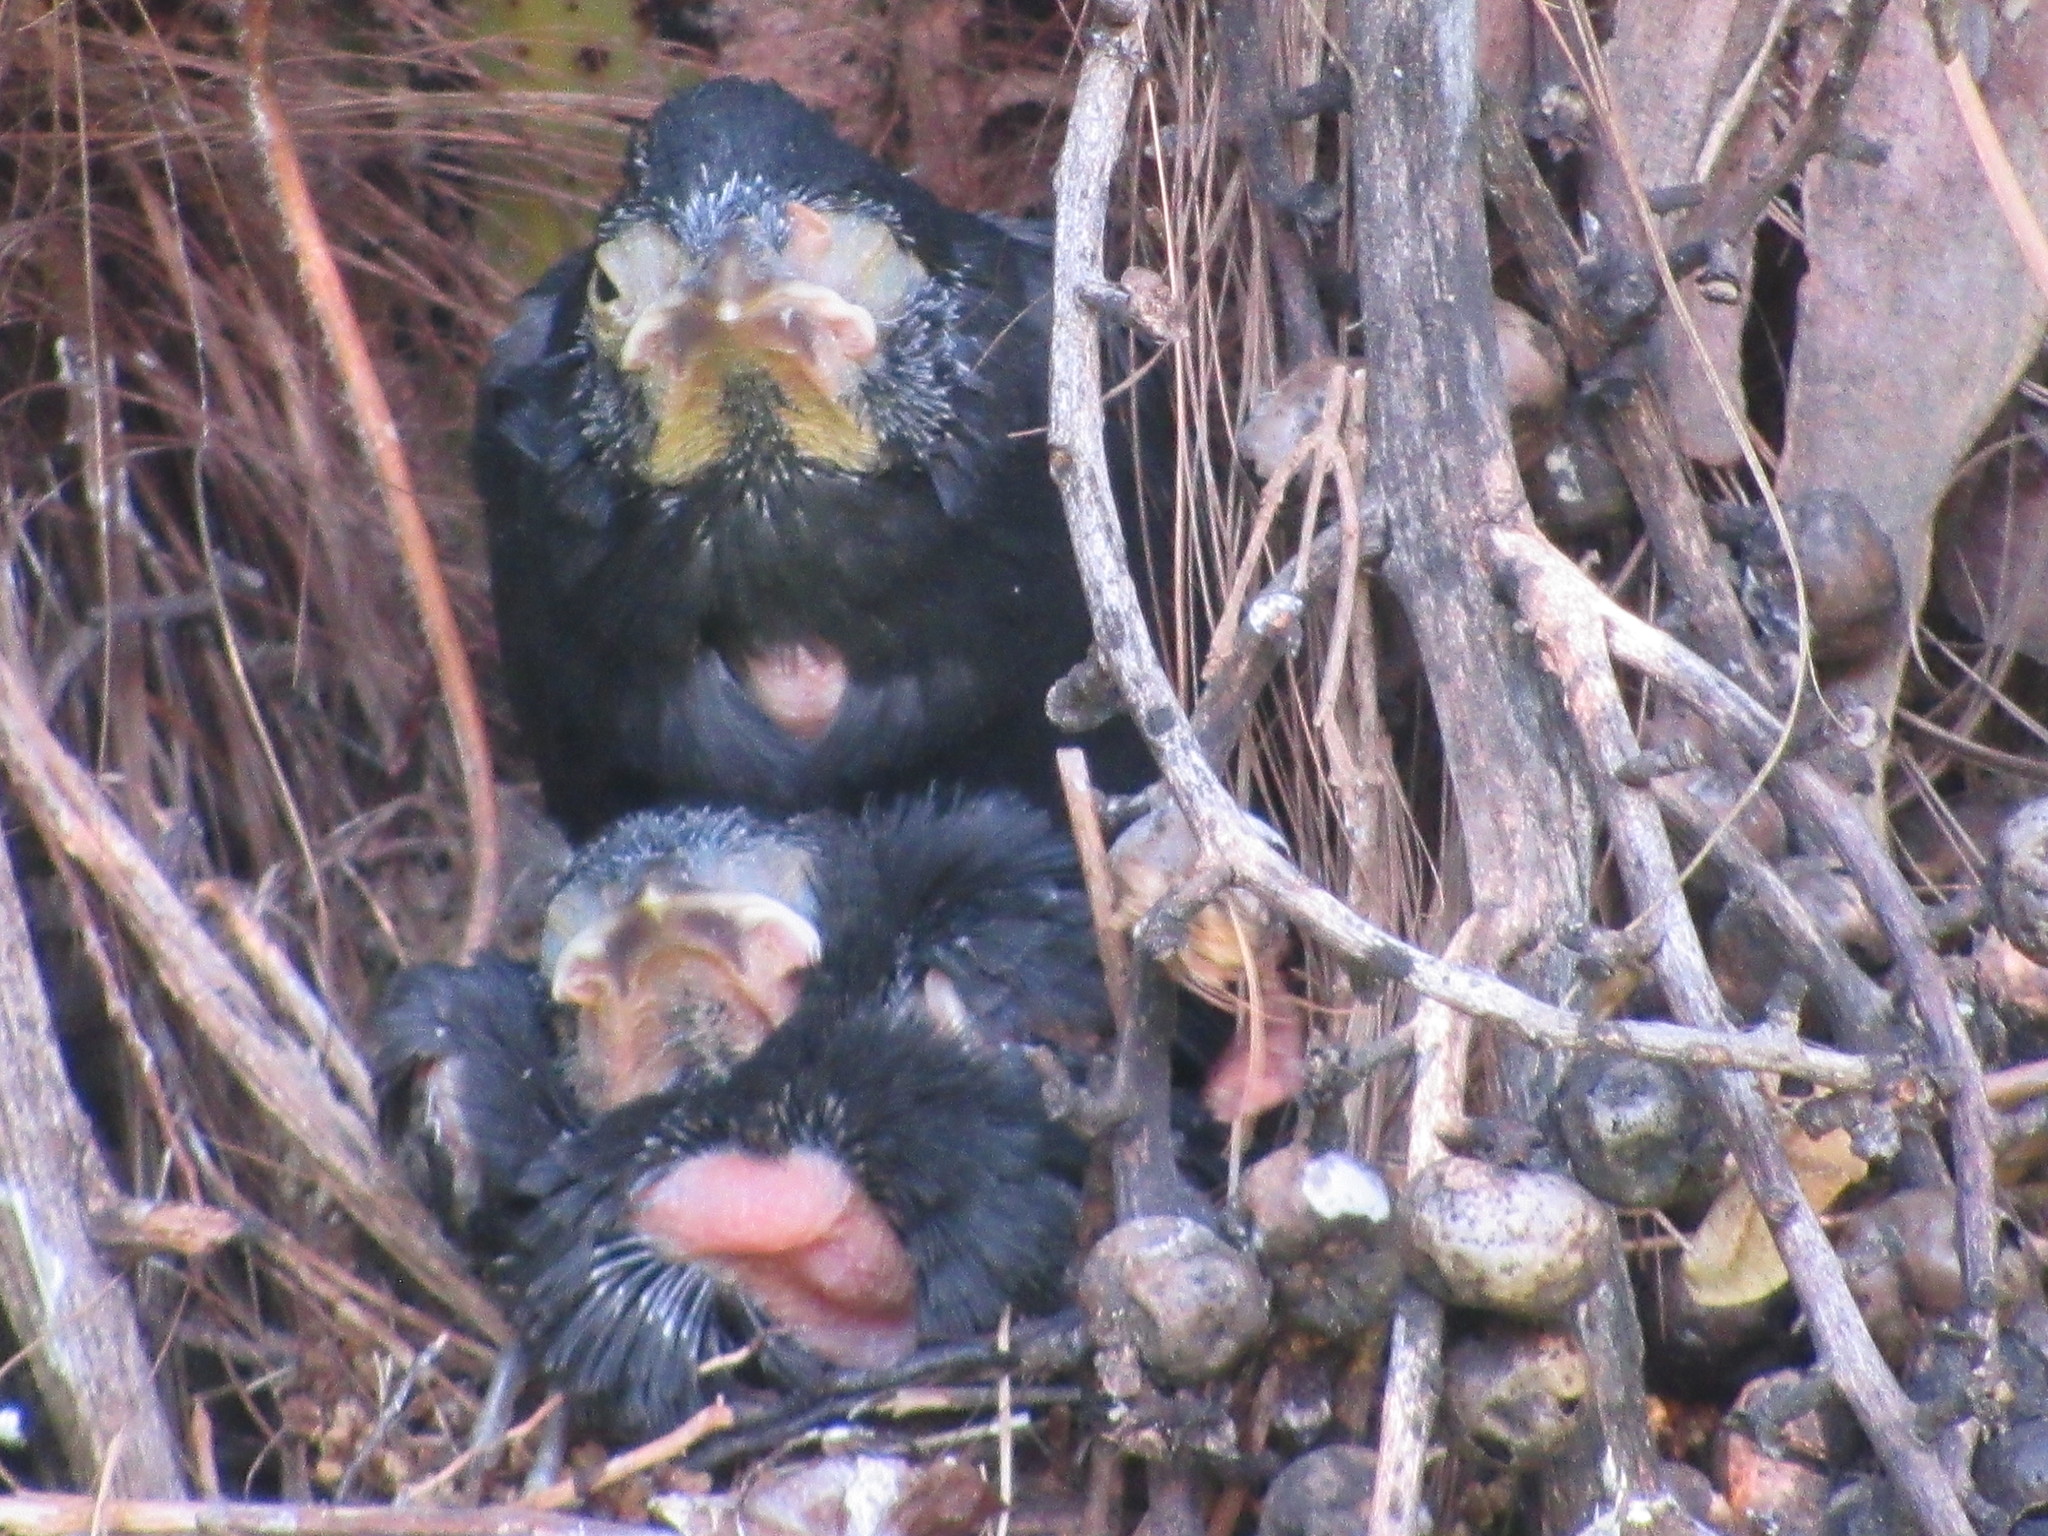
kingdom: Animalia
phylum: Chordata
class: Aves
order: Passeriformes
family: Icteridae
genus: Molothrus
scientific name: Molothrus bonariensis
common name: Shiny cowbird
